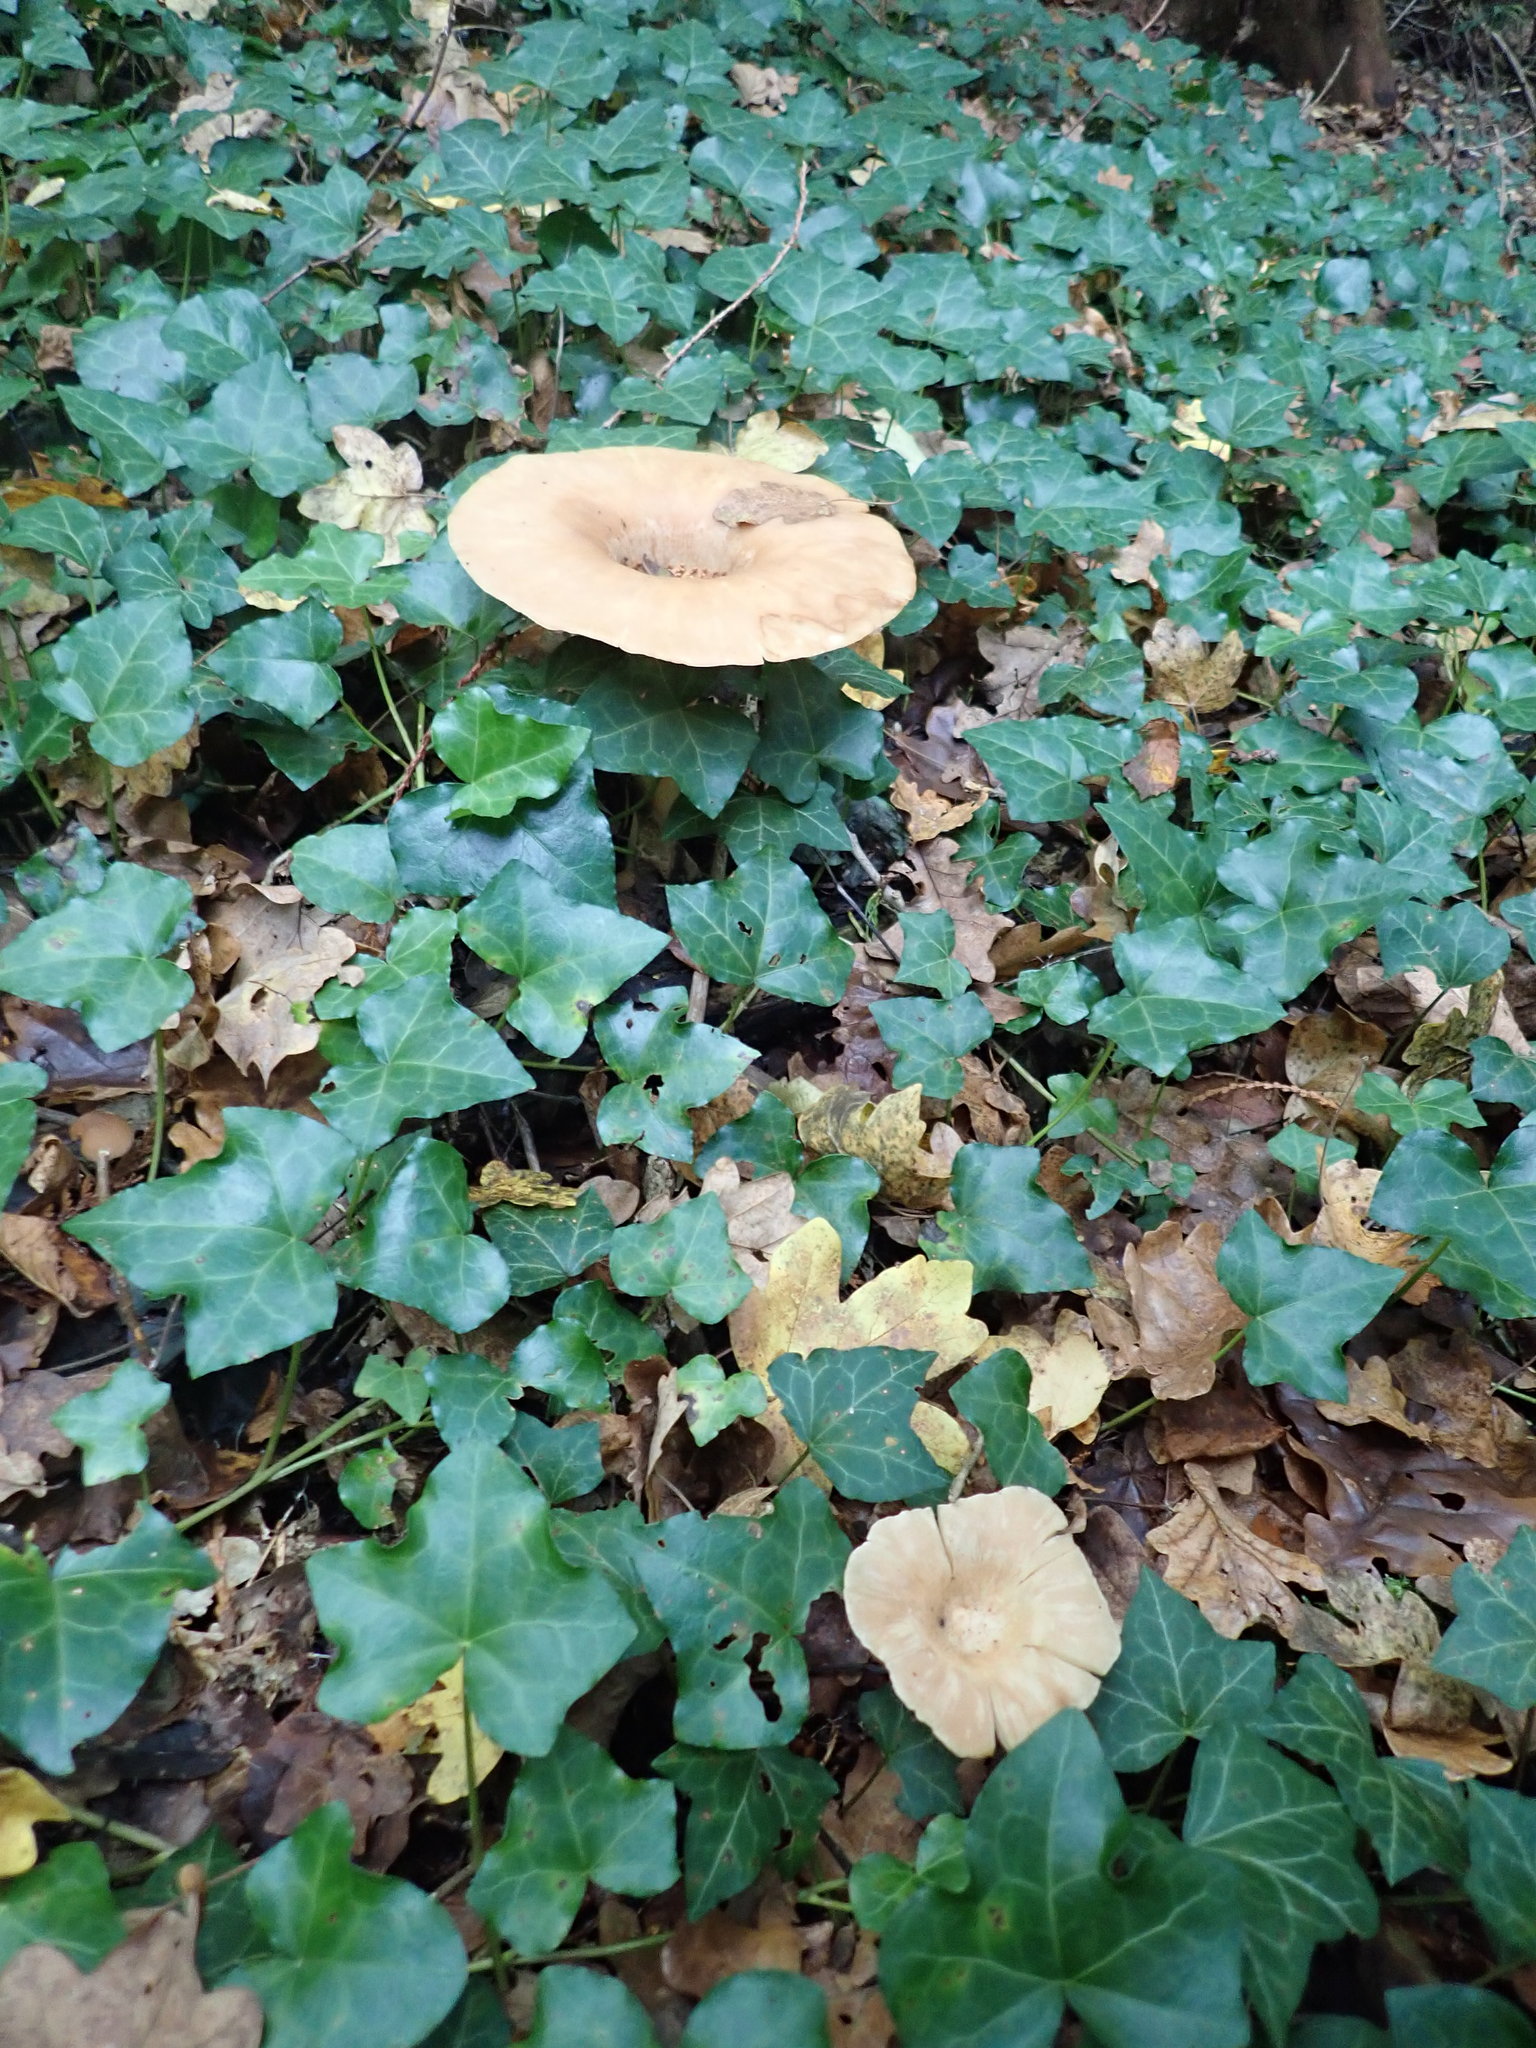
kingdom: Fungi
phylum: Basidiomycota
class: Agaricomycetes
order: Agaricales
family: Tricholomataceae
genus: Infundibulicybe
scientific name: Infundibulicybe geotropa
